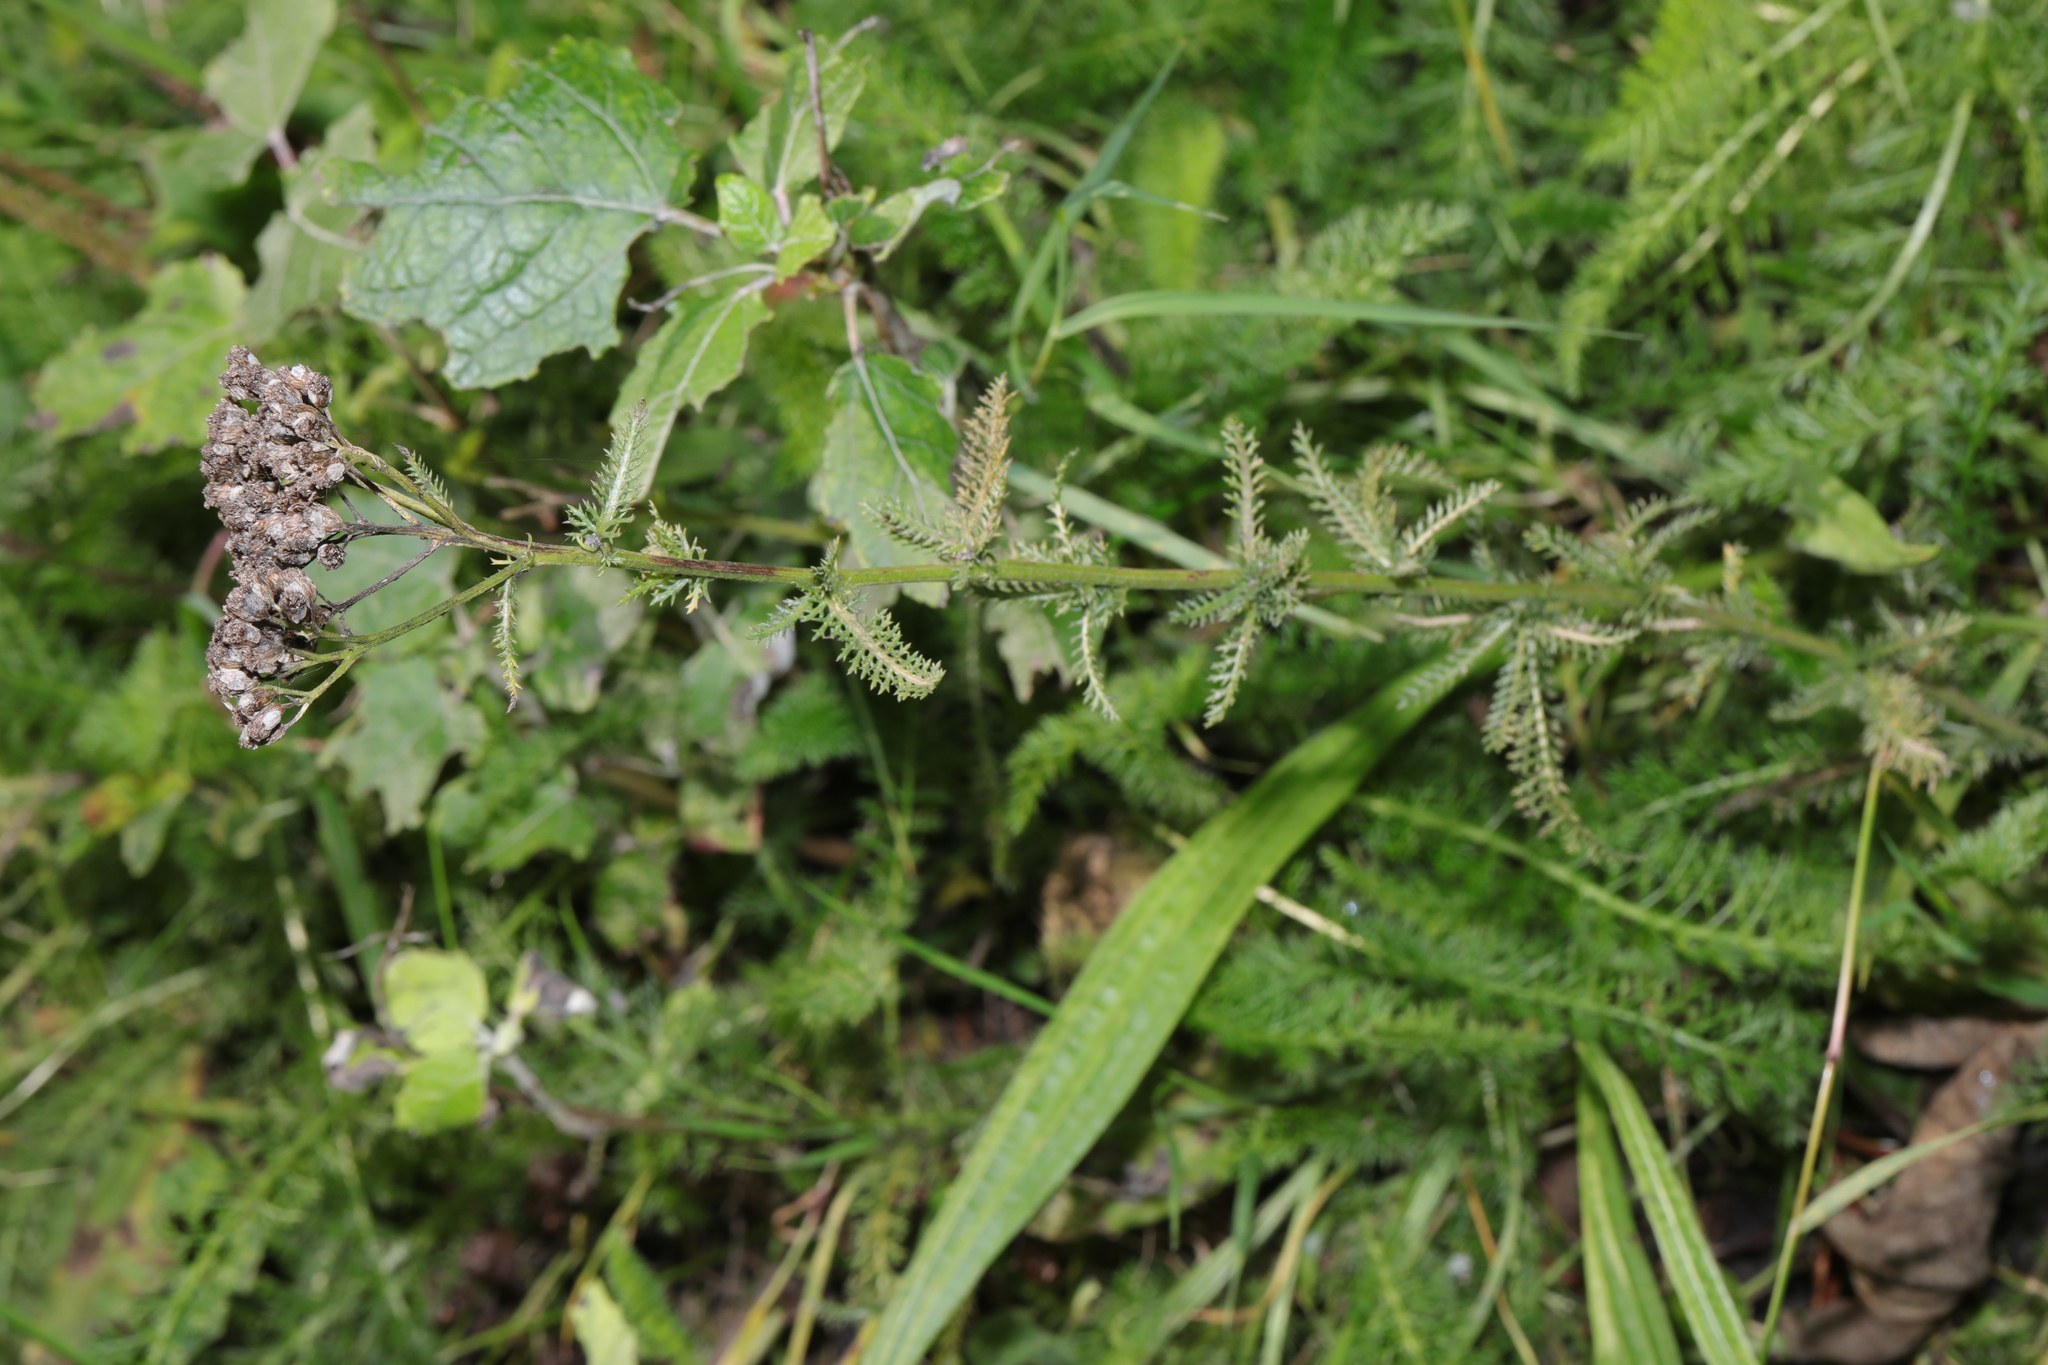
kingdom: Plantae
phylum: Tracheophyta
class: Magnoliopsida
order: Asterales
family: Asteraceae
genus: Achillea
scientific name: Achillea millefolium
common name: Yarrow
